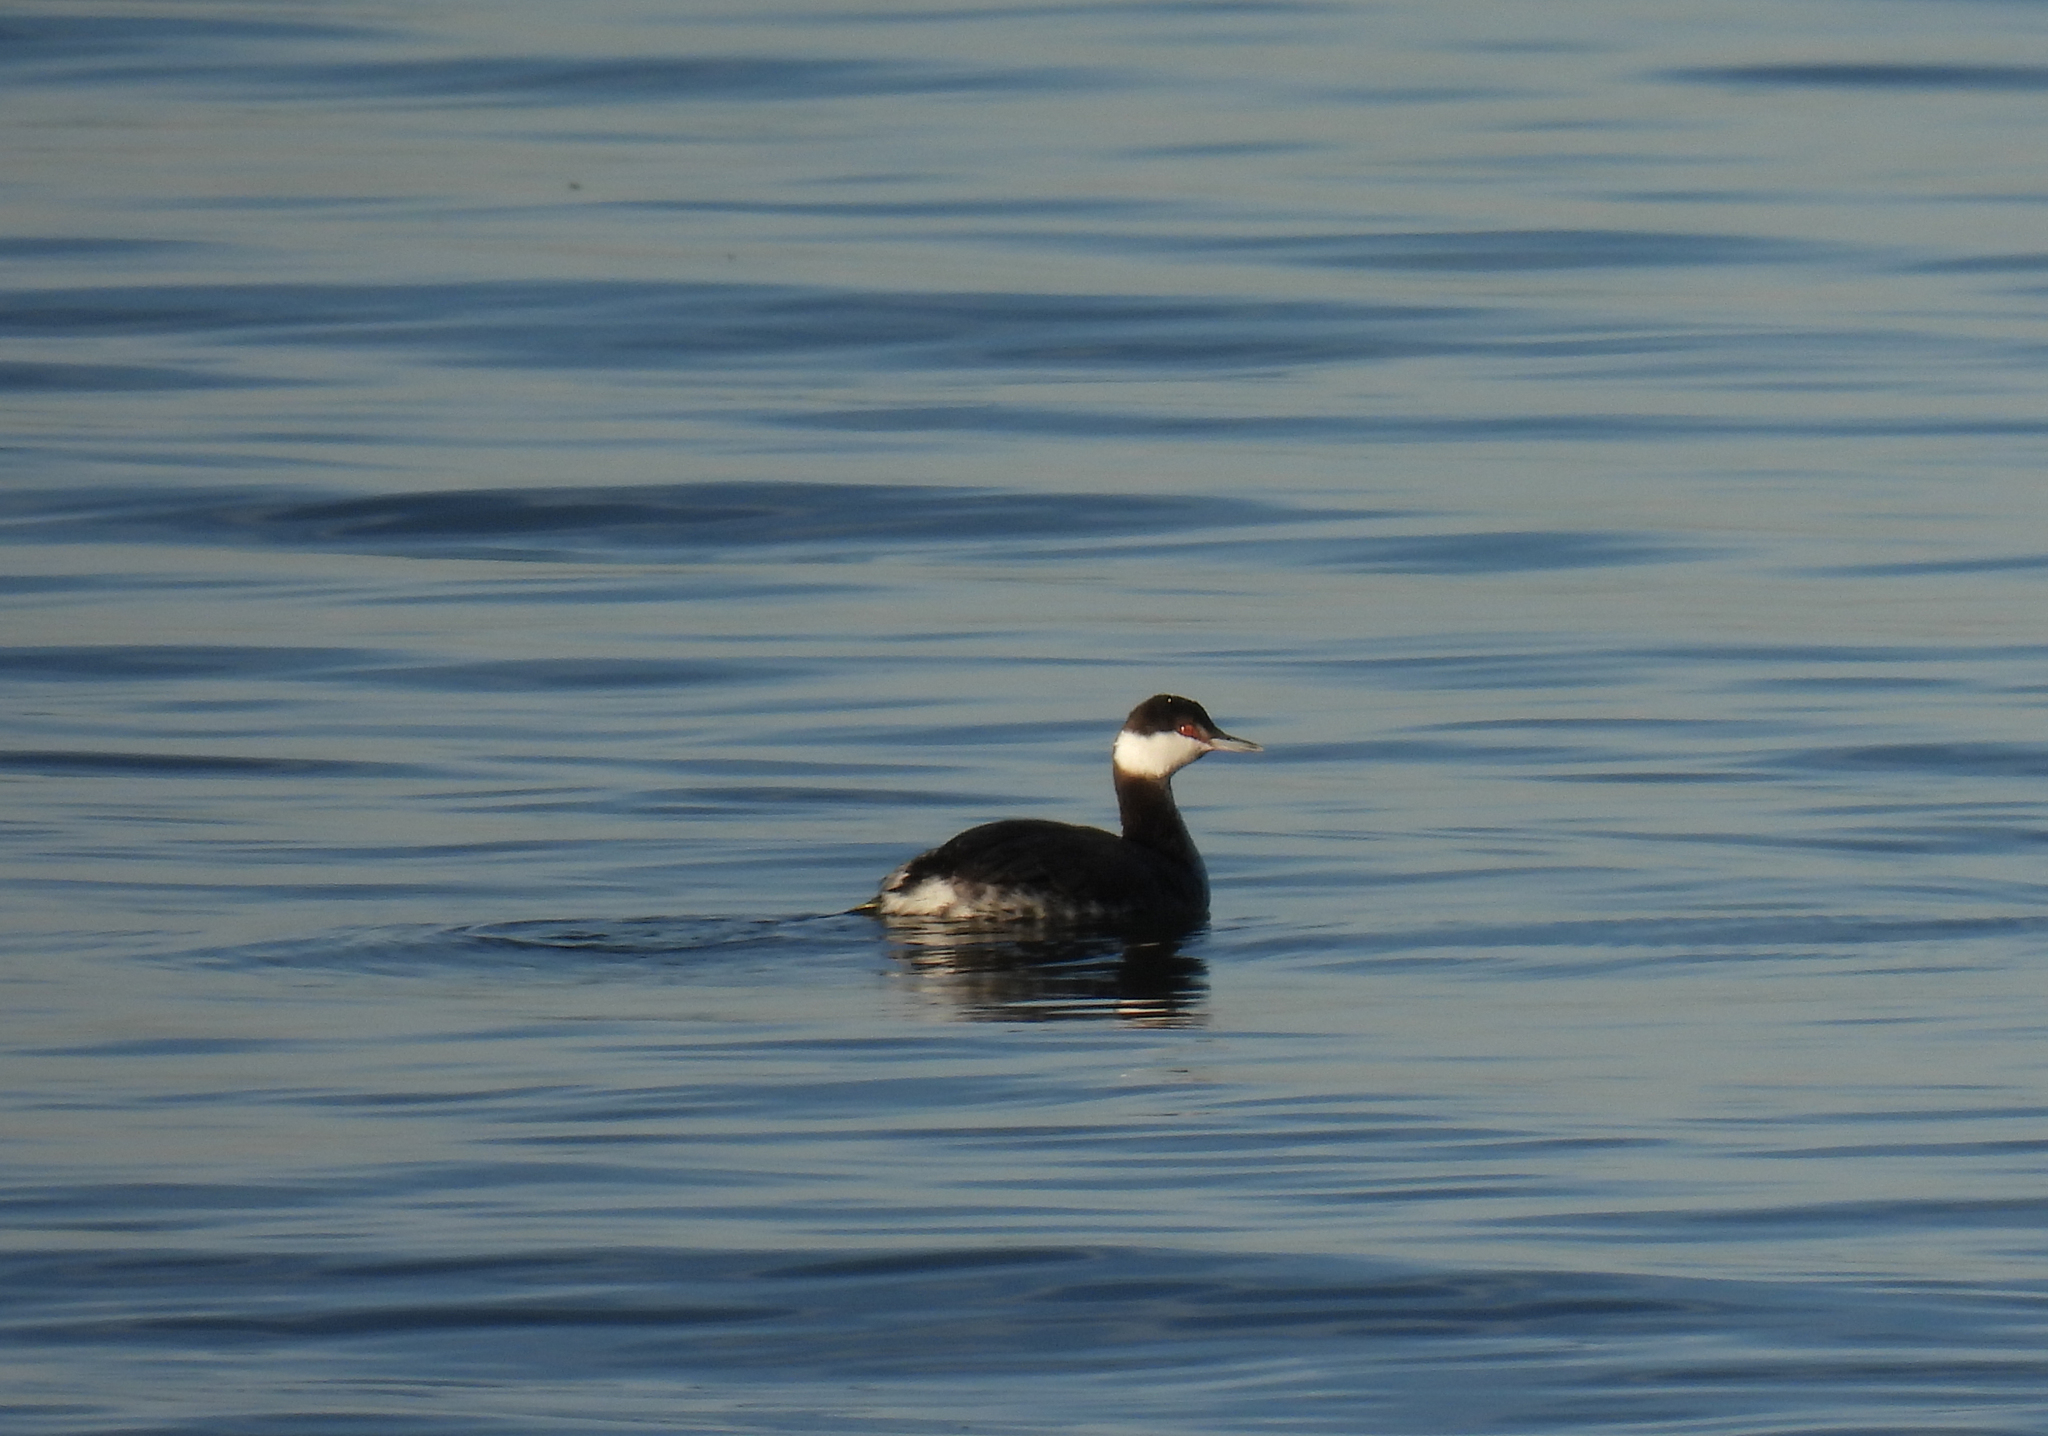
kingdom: Animalia
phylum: Chordata
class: Aves
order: Podicipediformes
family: Podicipedidae
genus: Podiceps
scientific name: Podiceps auritus
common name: Horned grebe
